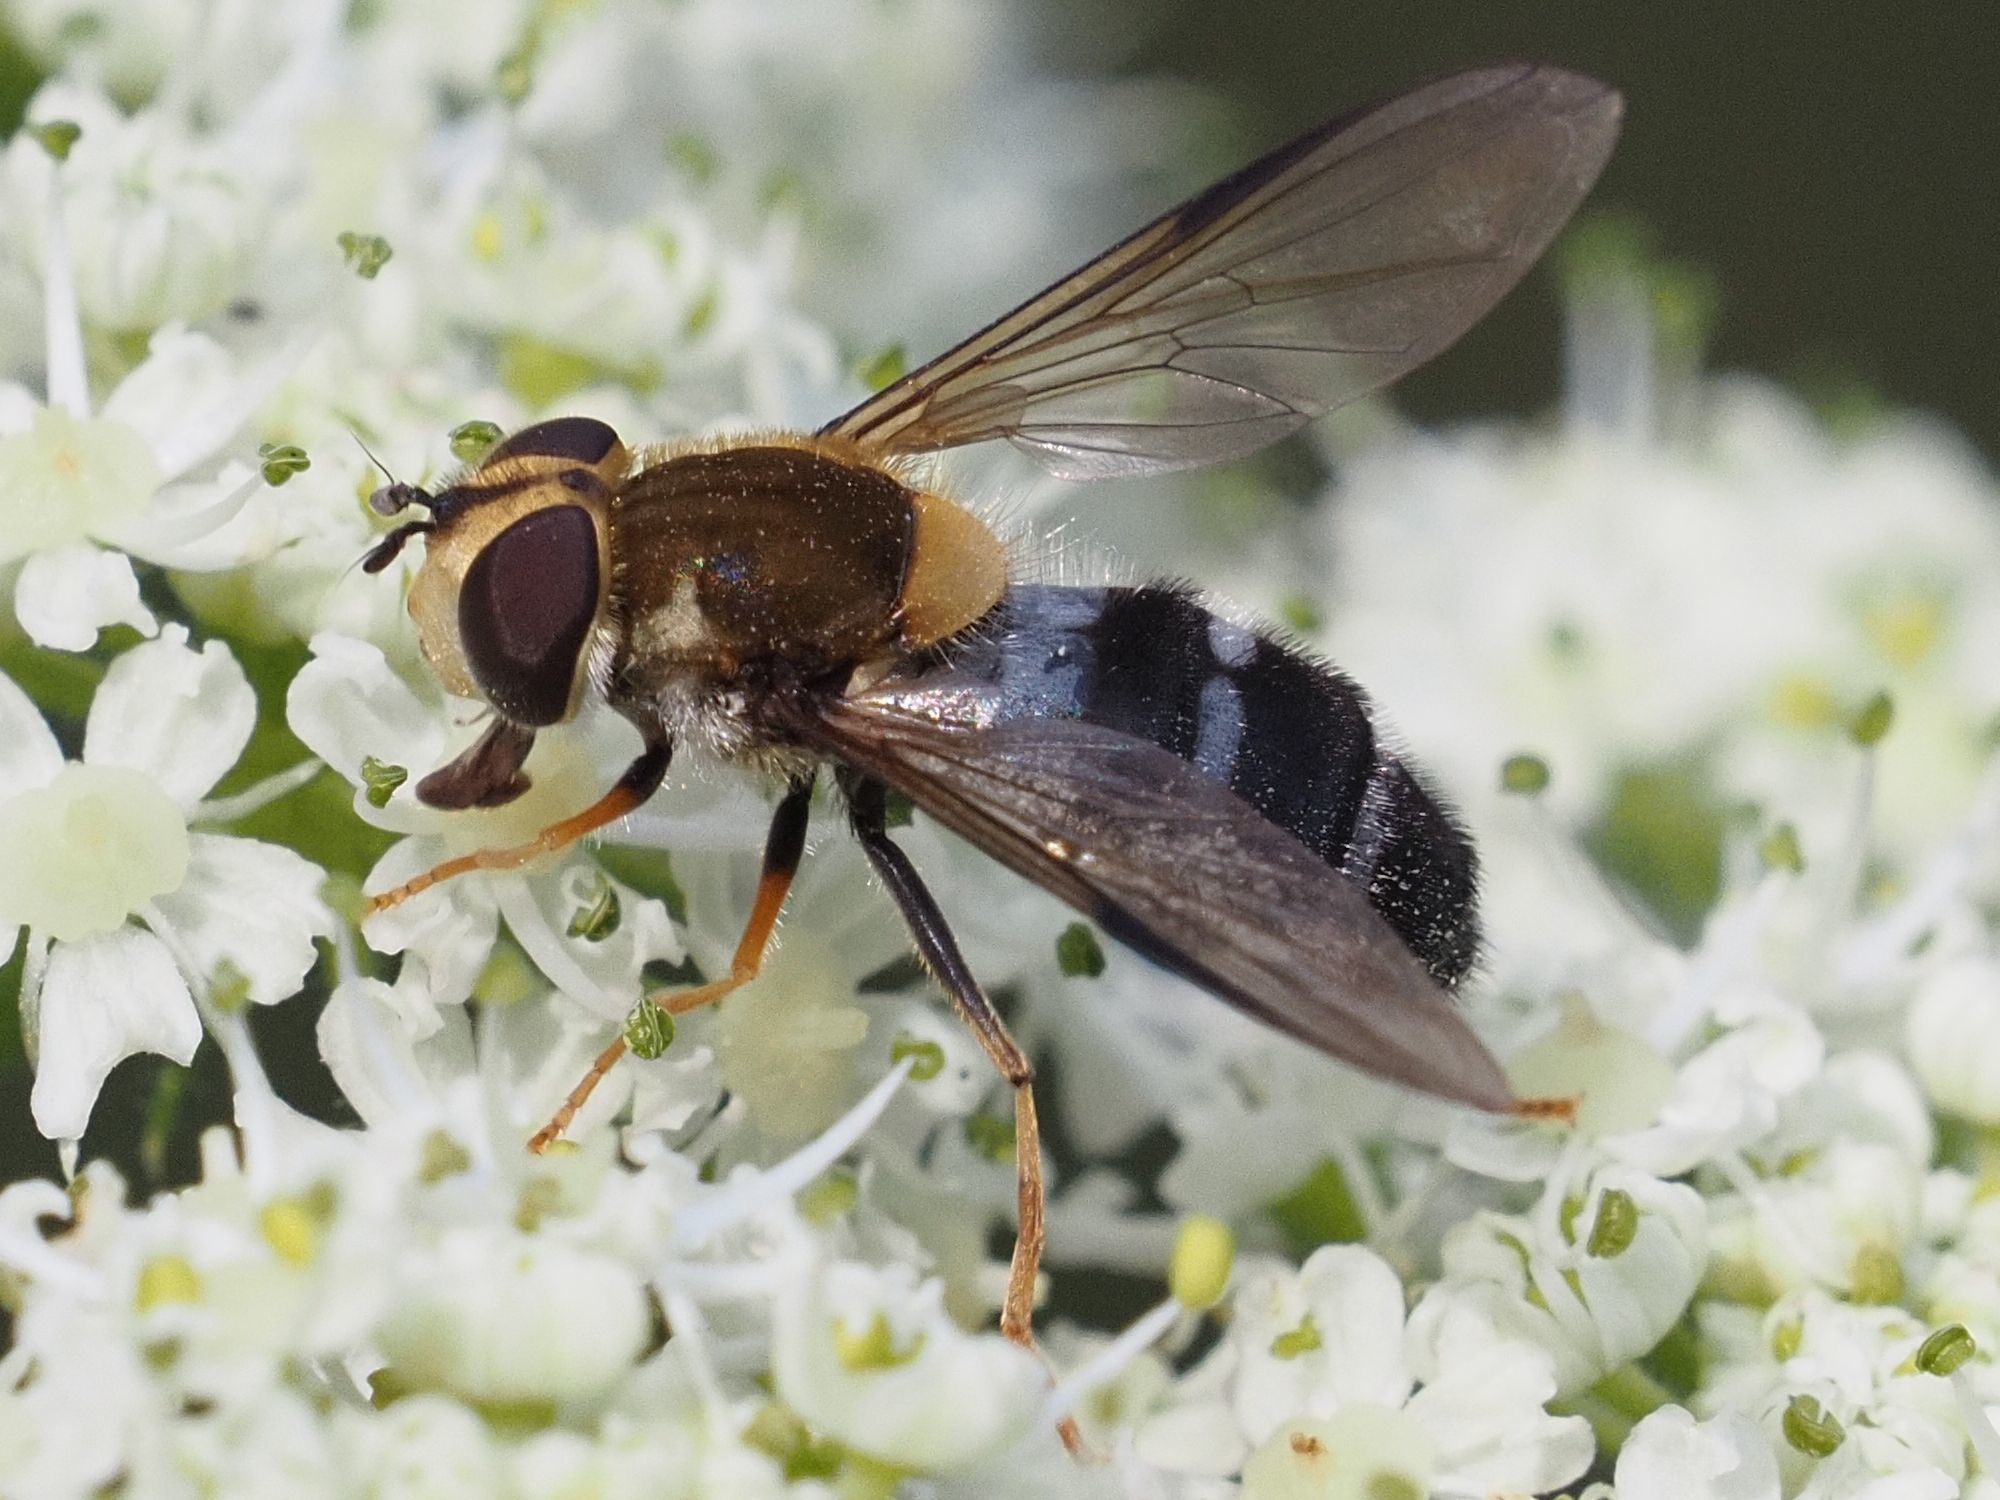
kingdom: Animalia
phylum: Arthropoda
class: Insecta
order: Diptera
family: Syrphidae
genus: Leucozona
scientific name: Leucozona glaucia
